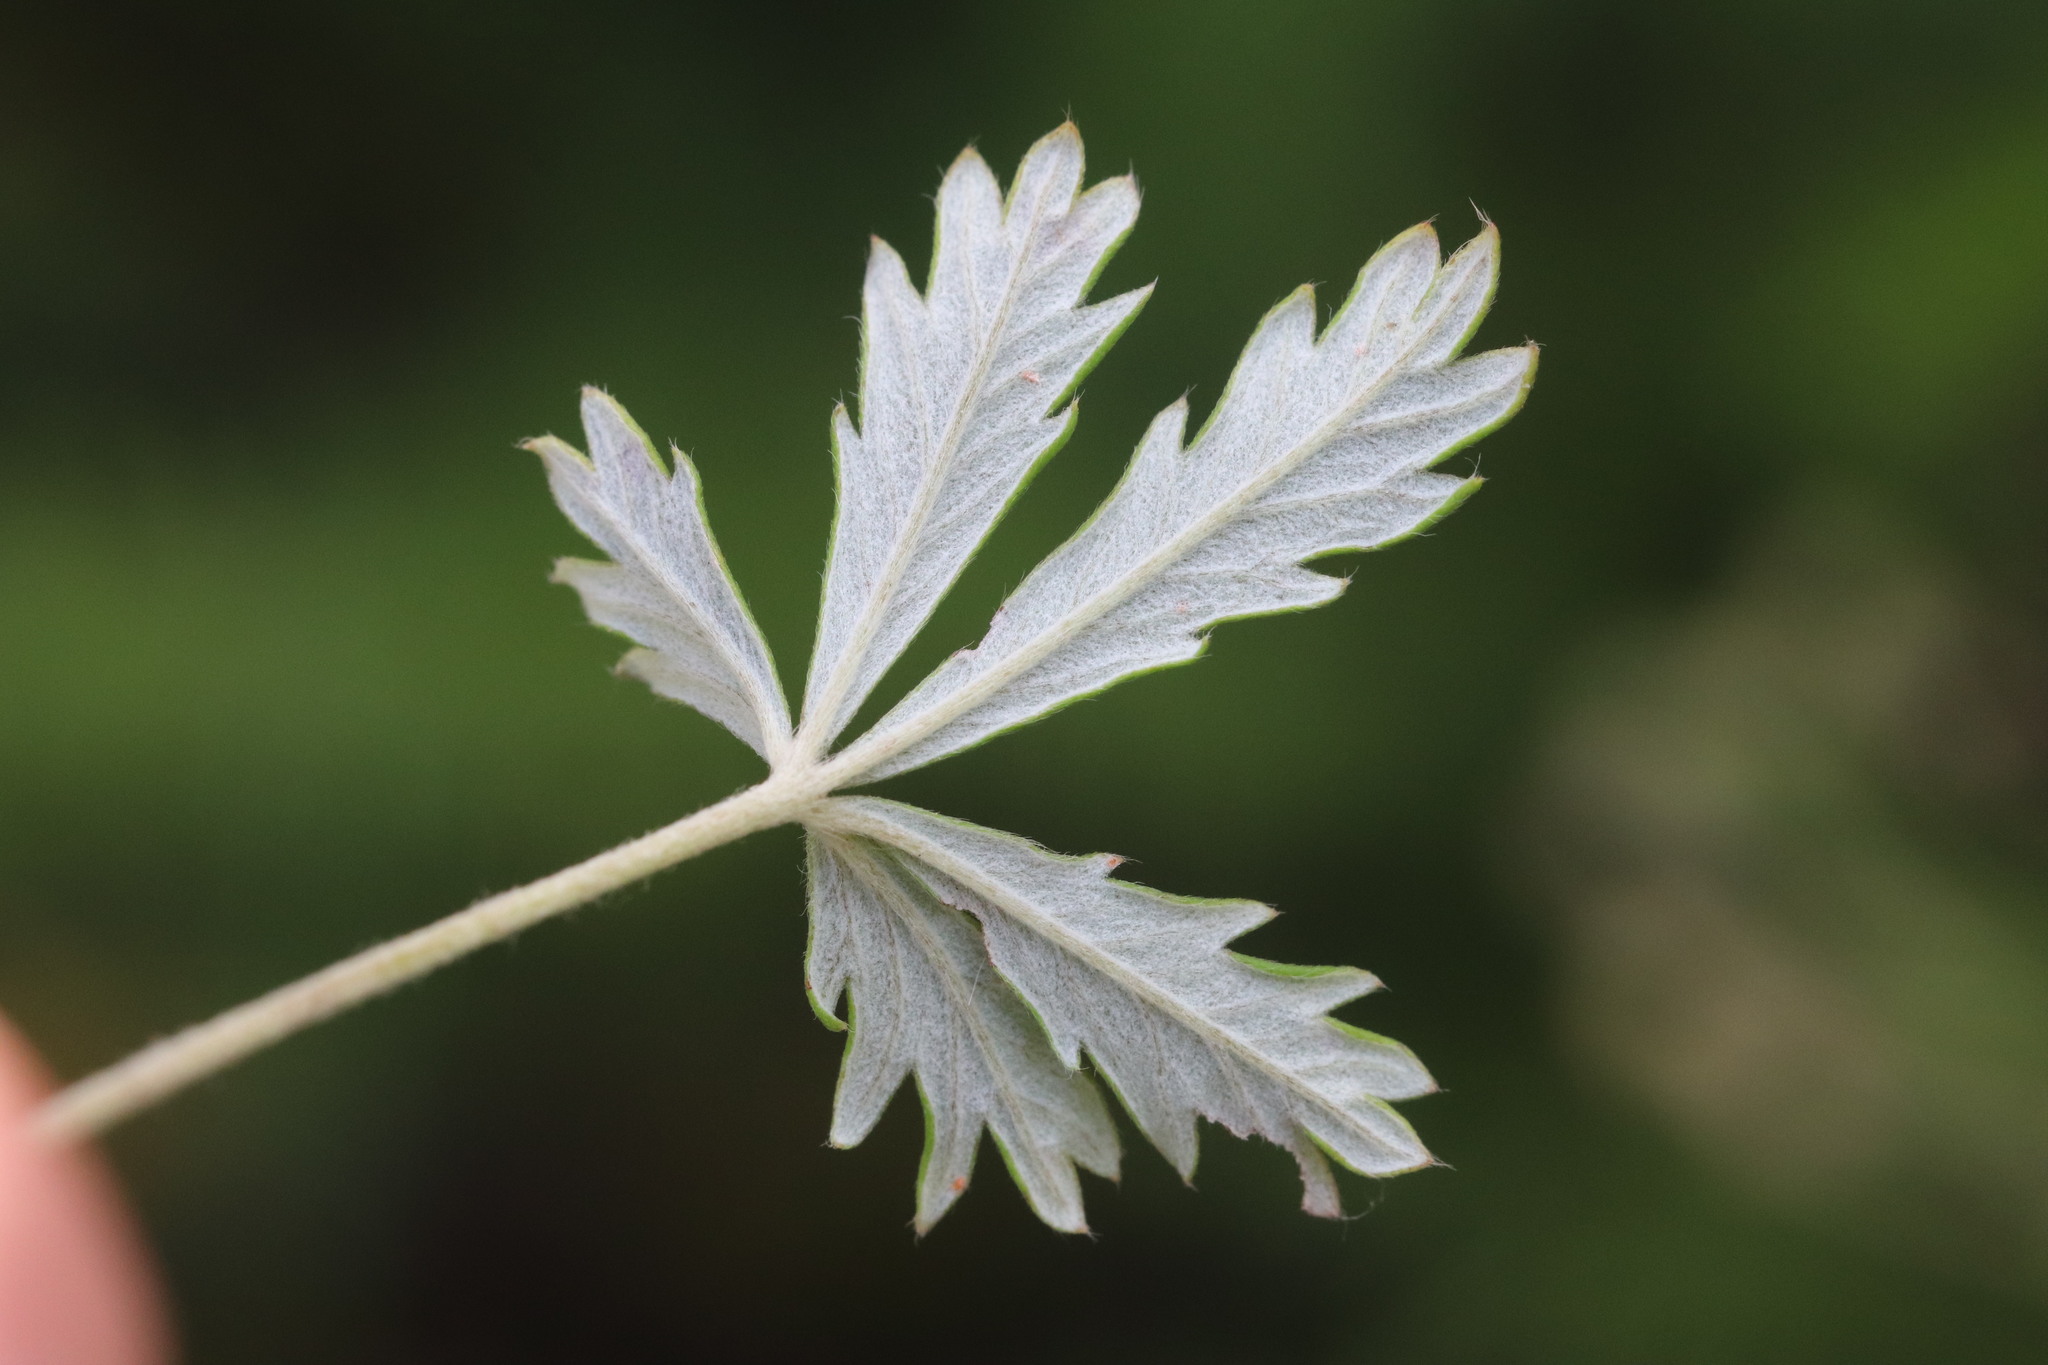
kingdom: Plantae
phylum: Tracheophyta
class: Magnoliopsida
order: Rosales
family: Rosaceae
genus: Potentilla
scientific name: Potentilla argentea
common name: Hoary cinquefoil
